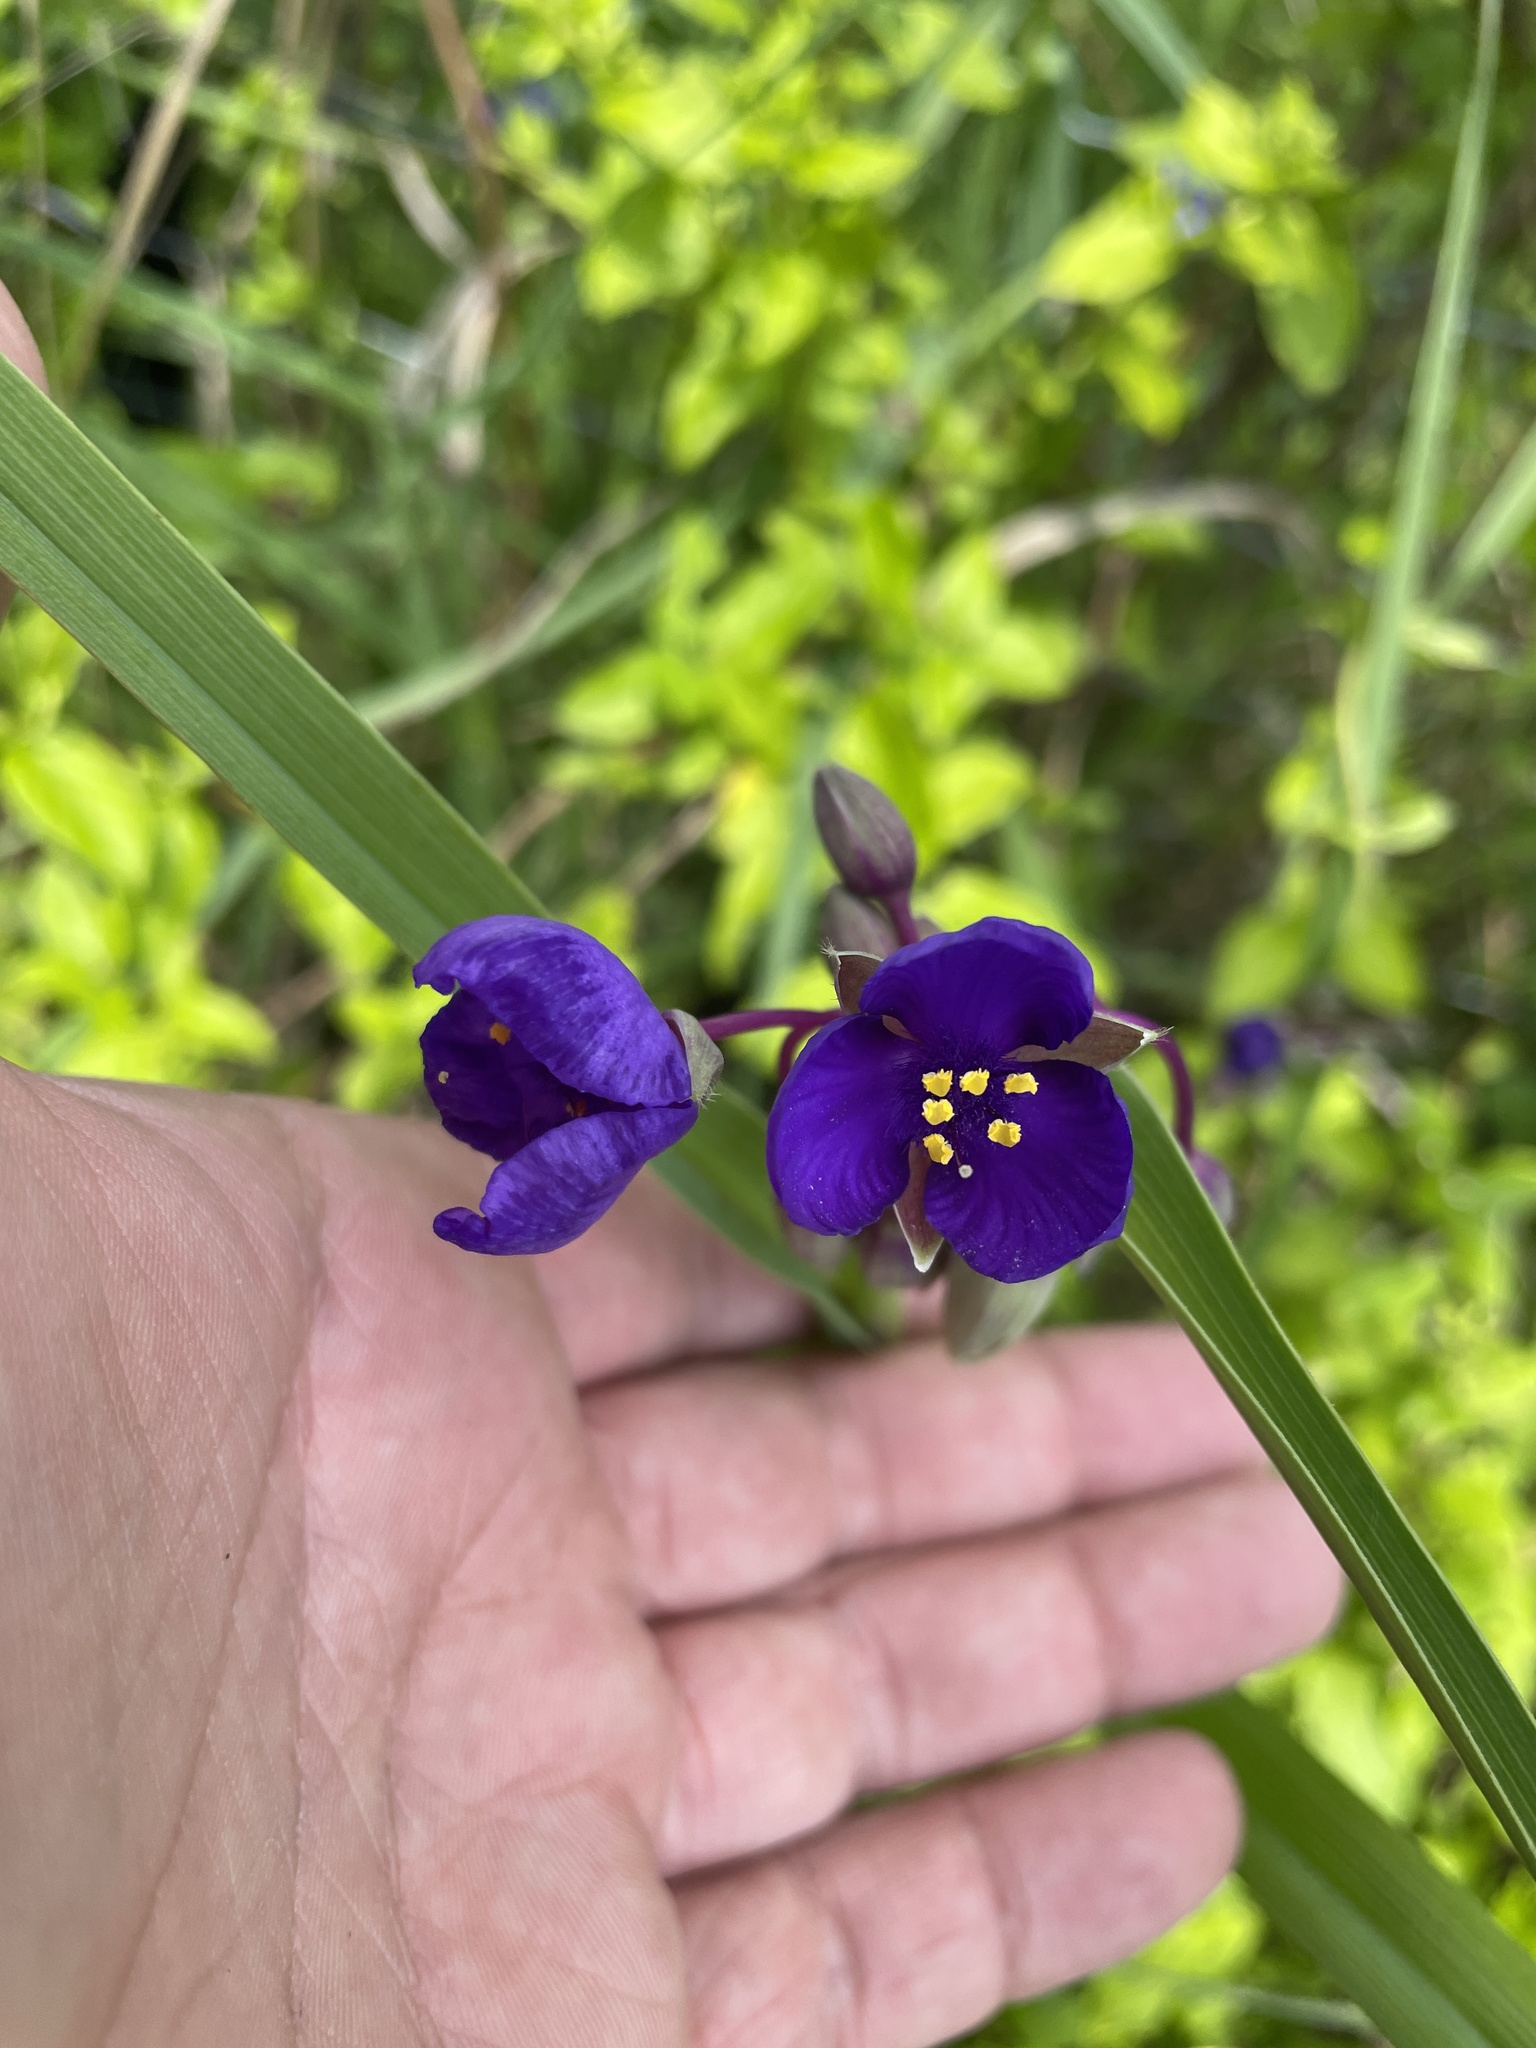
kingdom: Plantae
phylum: Tracheophyta
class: Liliopsida
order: Commelinales
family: Commelinaceae
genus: Tradescantia
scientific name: Tradescantia virginiana
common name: Spiderwort
